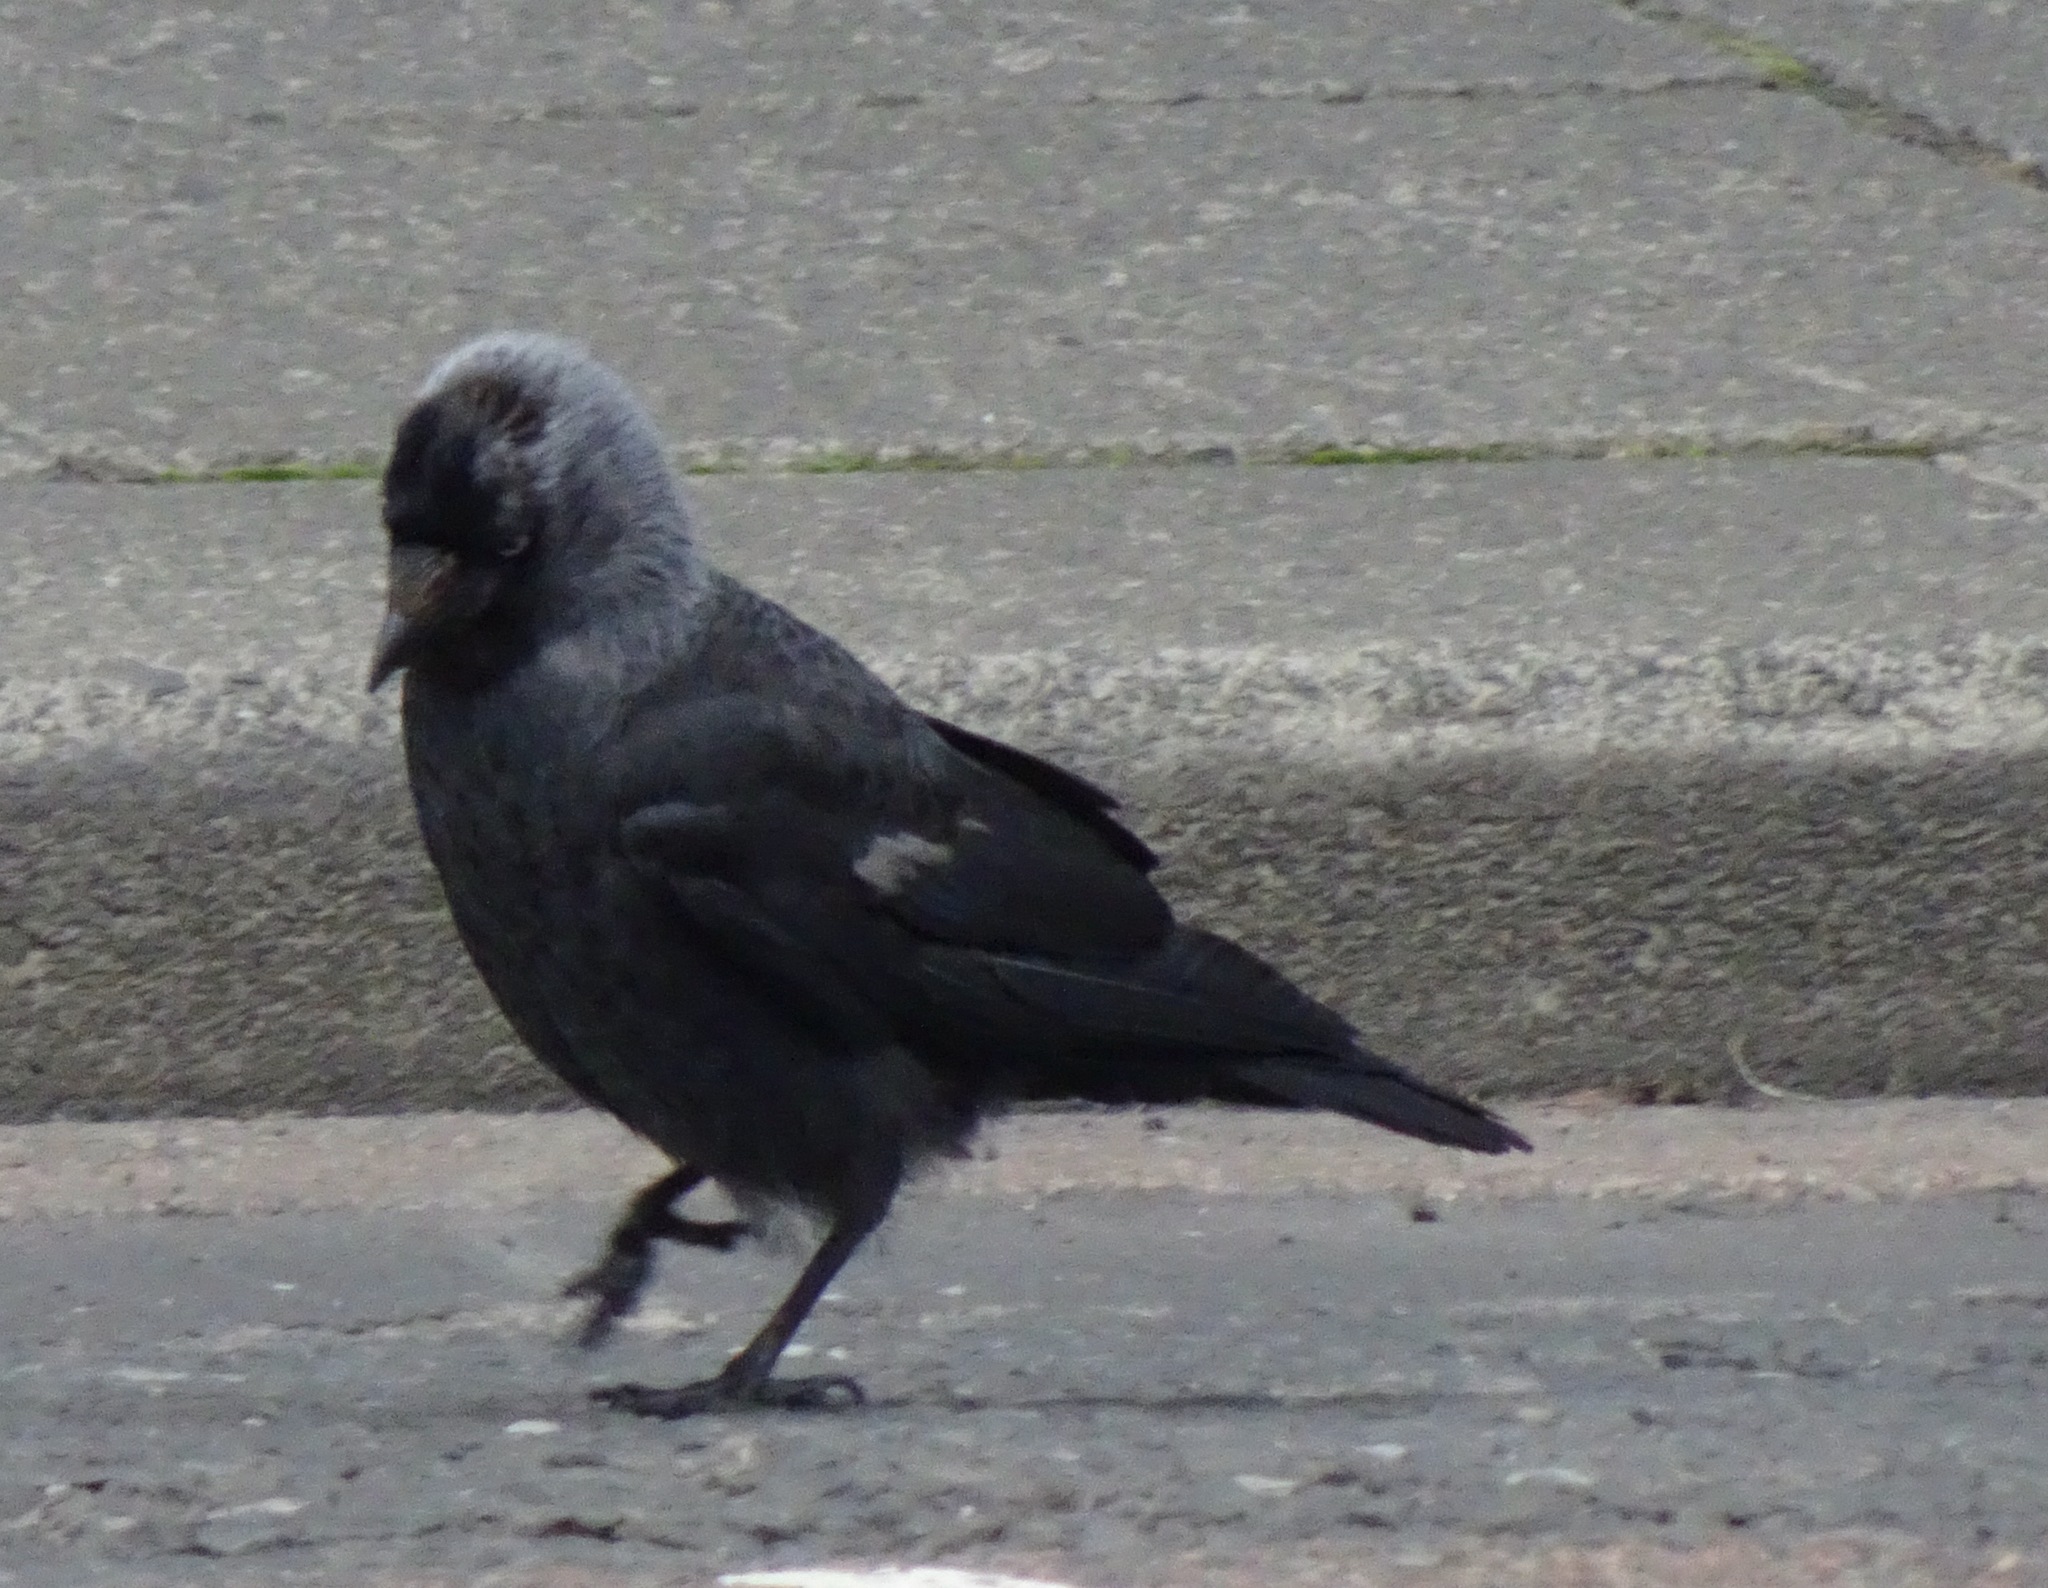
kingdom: Animalia
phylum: Chordata
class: Aves
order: Passeriformes
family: Corvidae
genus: Coloeus
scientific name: Coloeus monedula
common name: Western jackdaw
